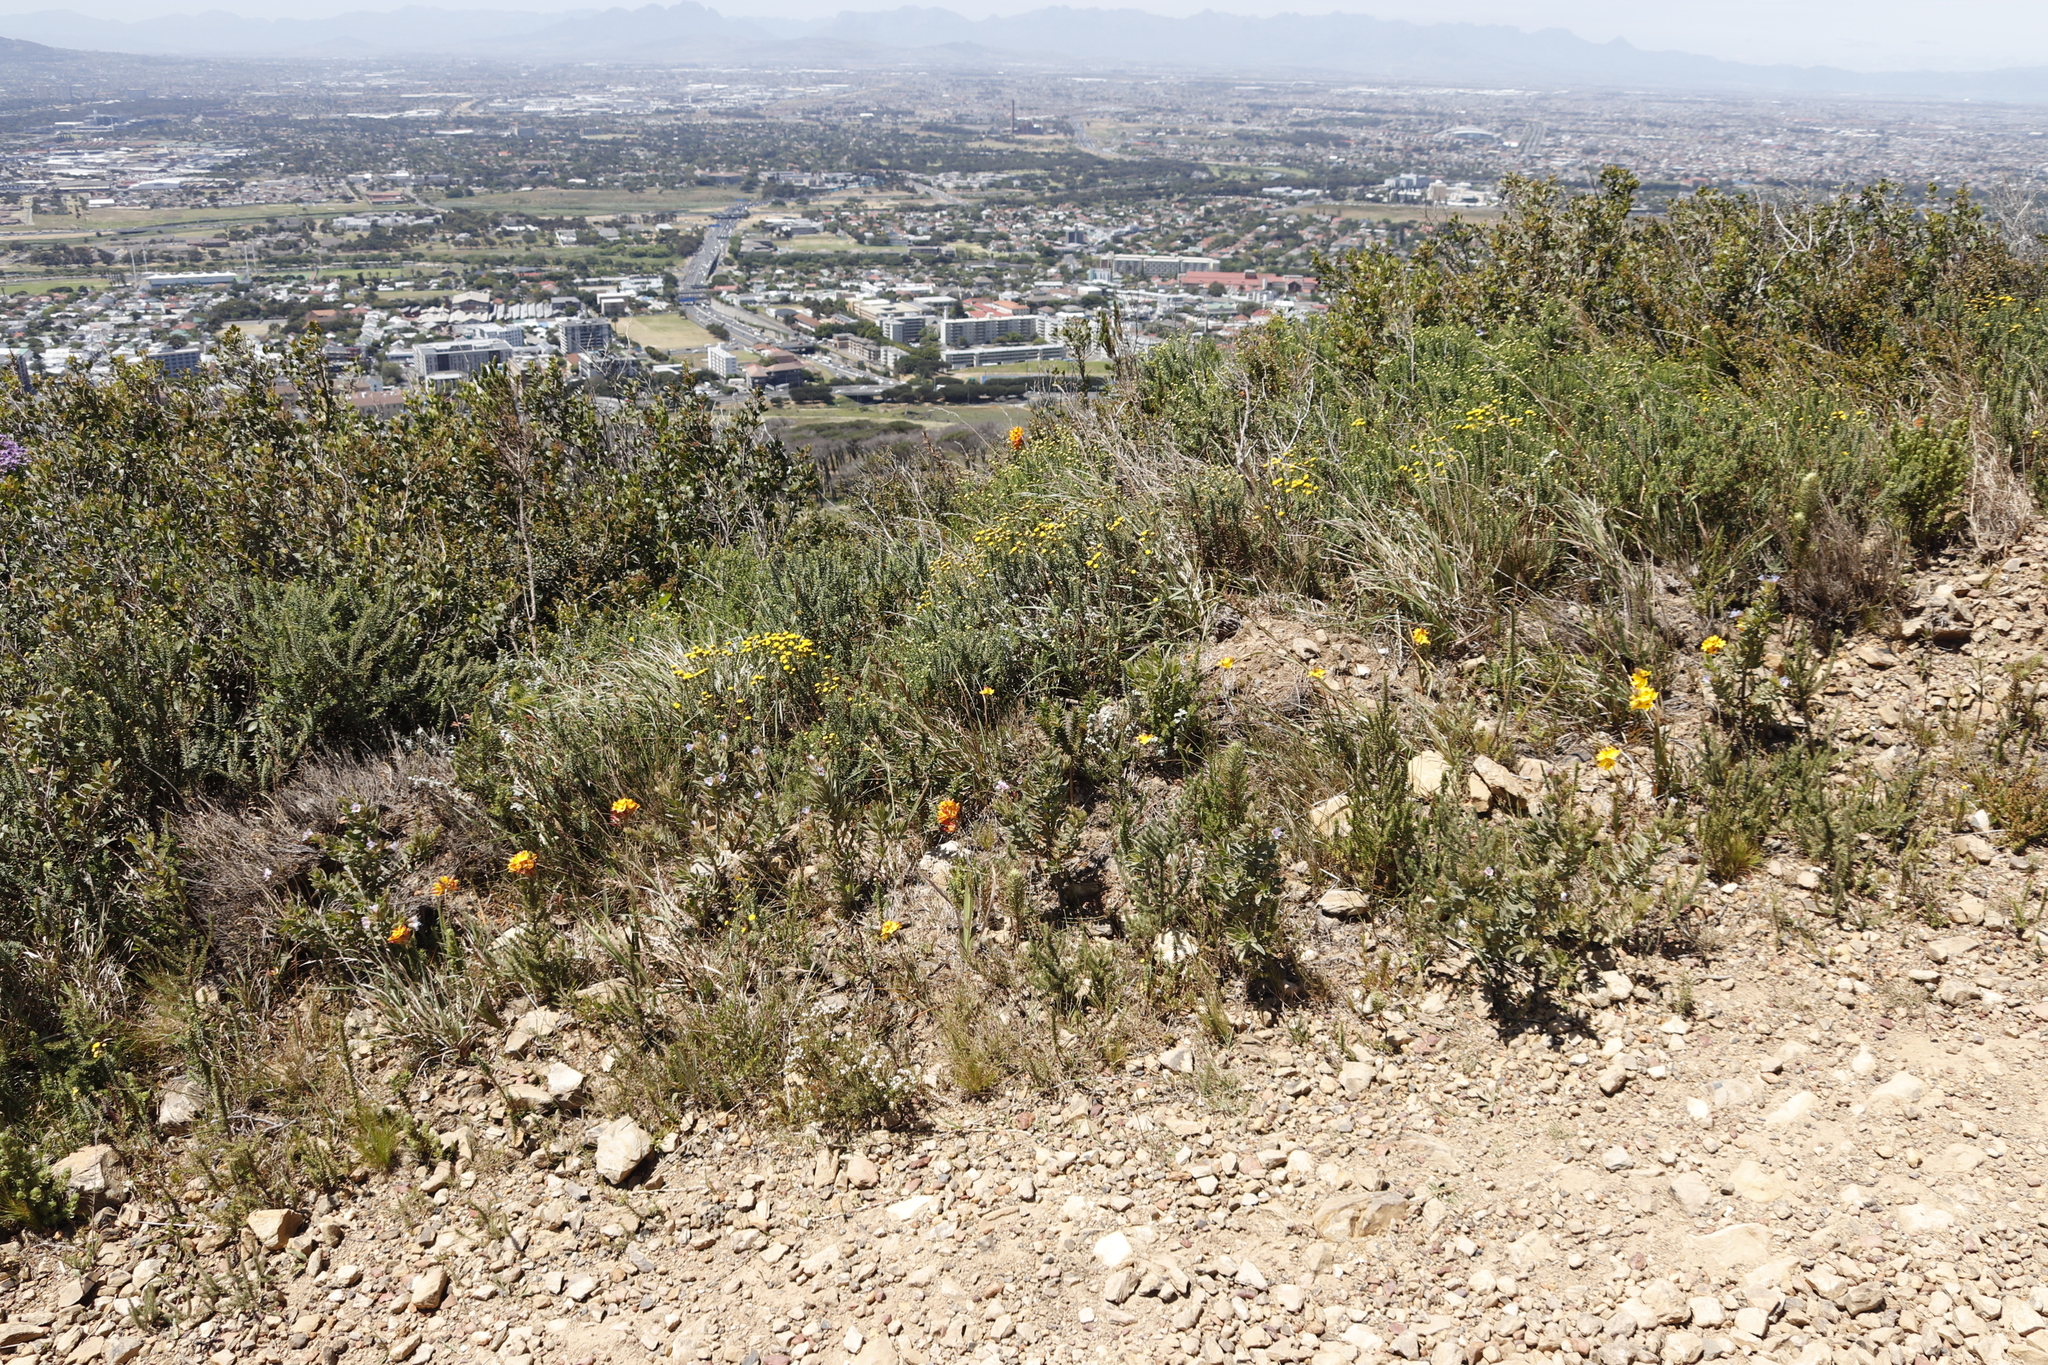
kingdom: Plantae
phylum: Tracheophyta
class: Liliopsida
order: Asparagales
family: Iridaceae
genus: Ixia
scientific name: Ixia dubia
